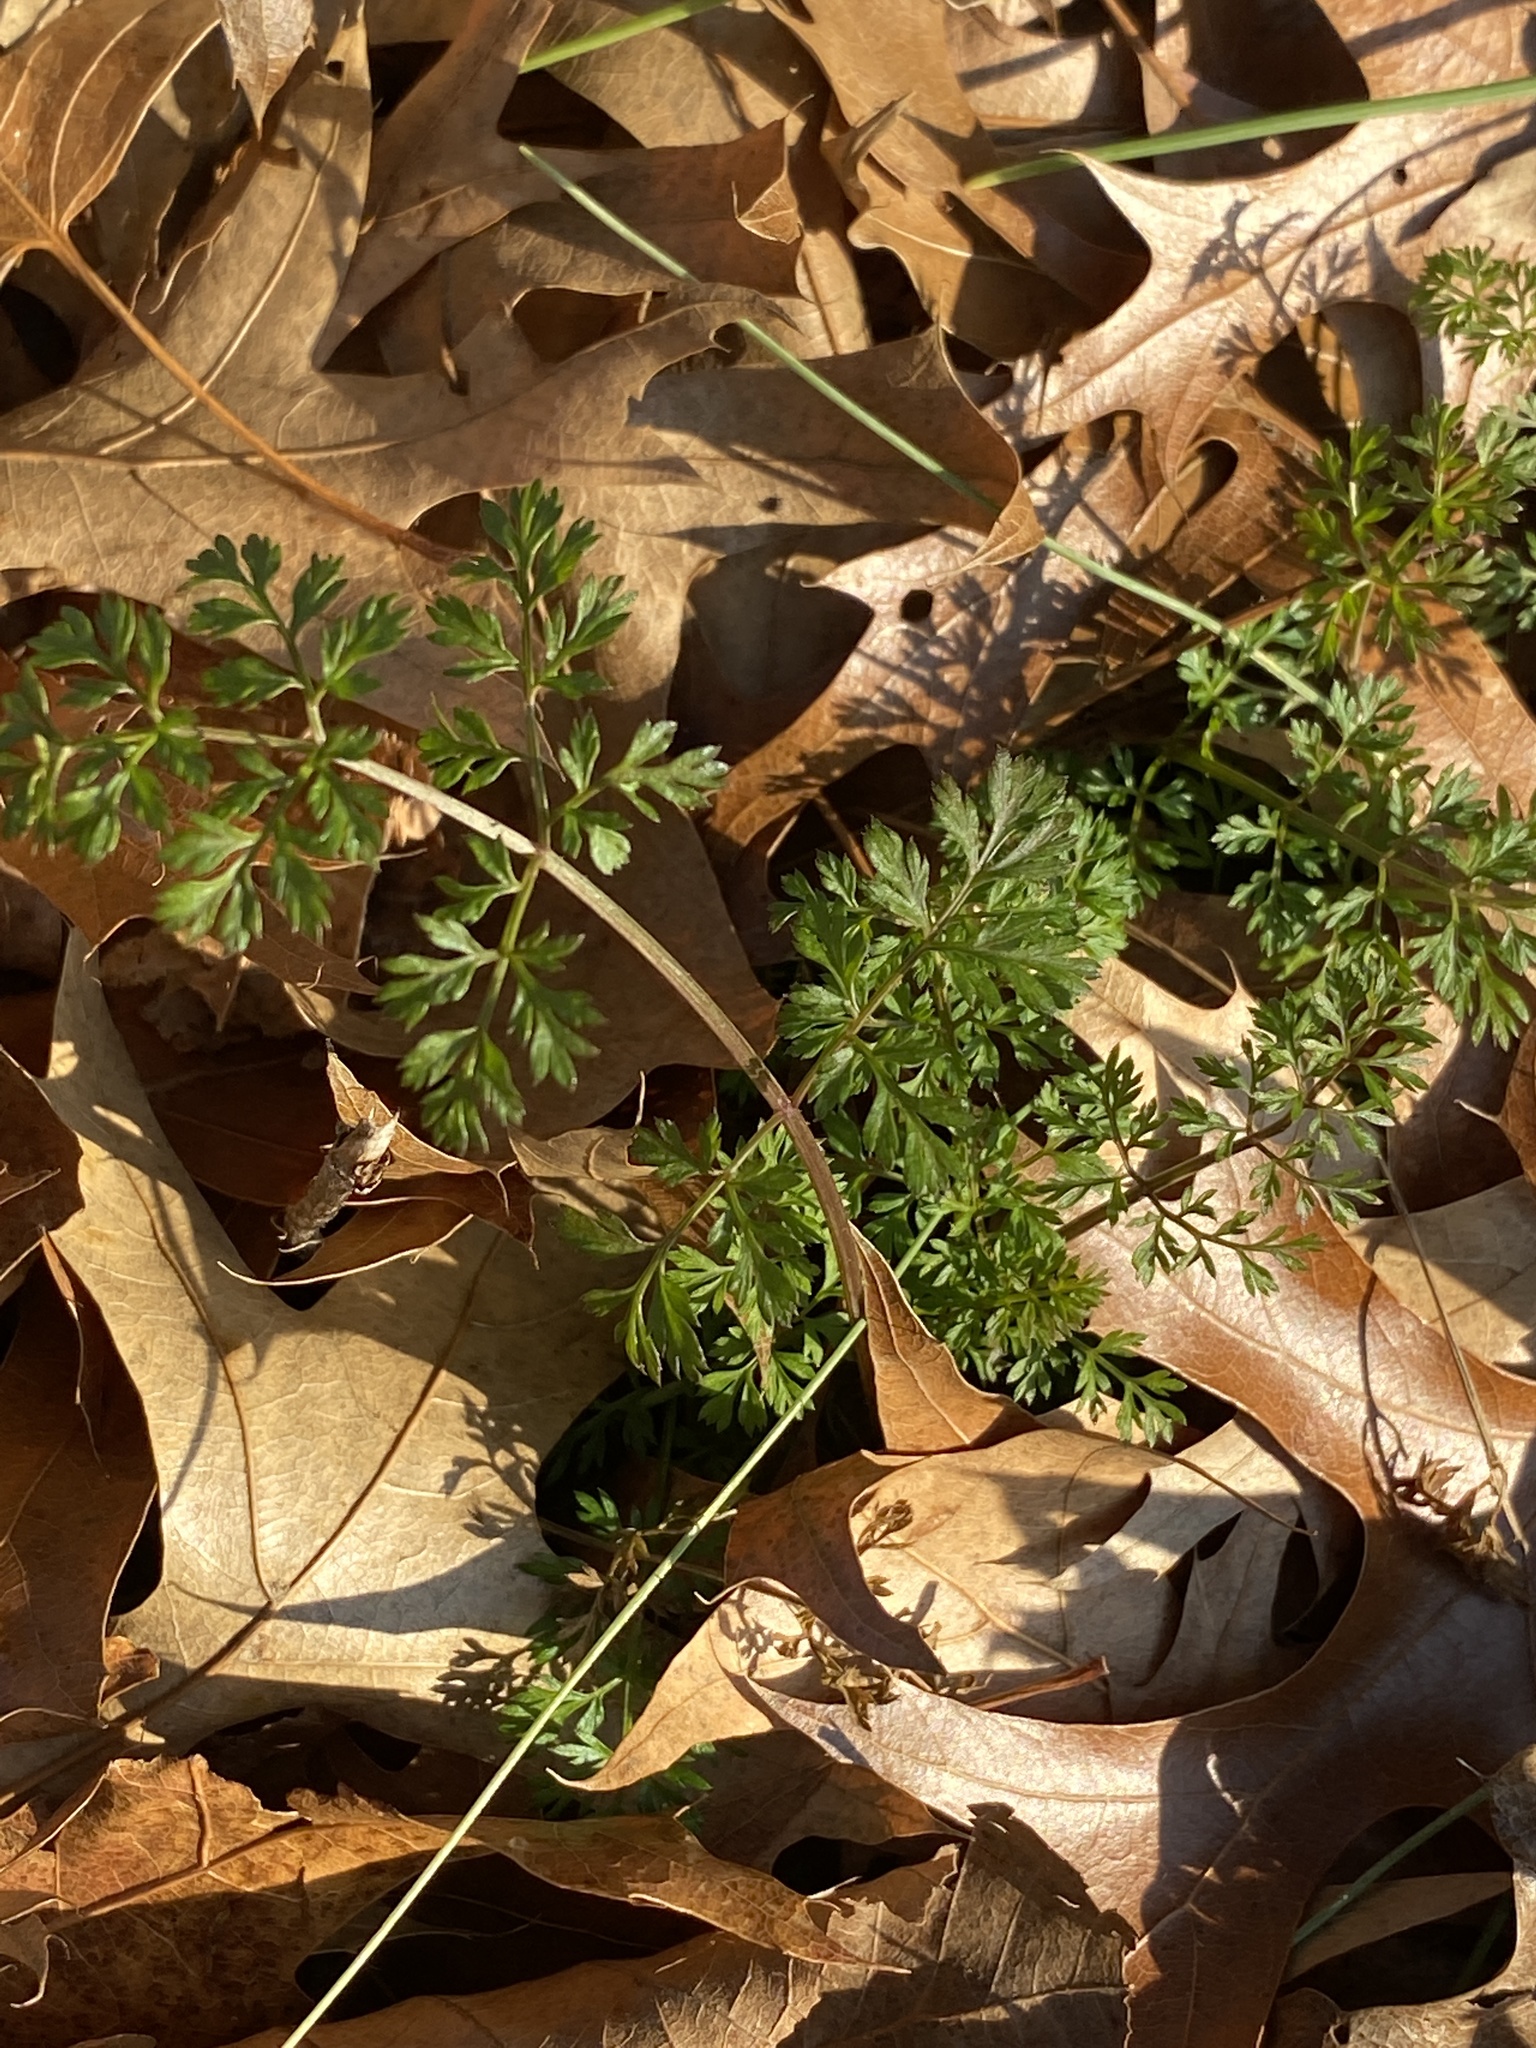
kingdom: Plantae
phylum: Tracheophyta
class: Magnoliopsida
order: Apiales
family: Apiaceae
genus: Daucus
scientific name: Daucus carota
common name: Wild carrot
